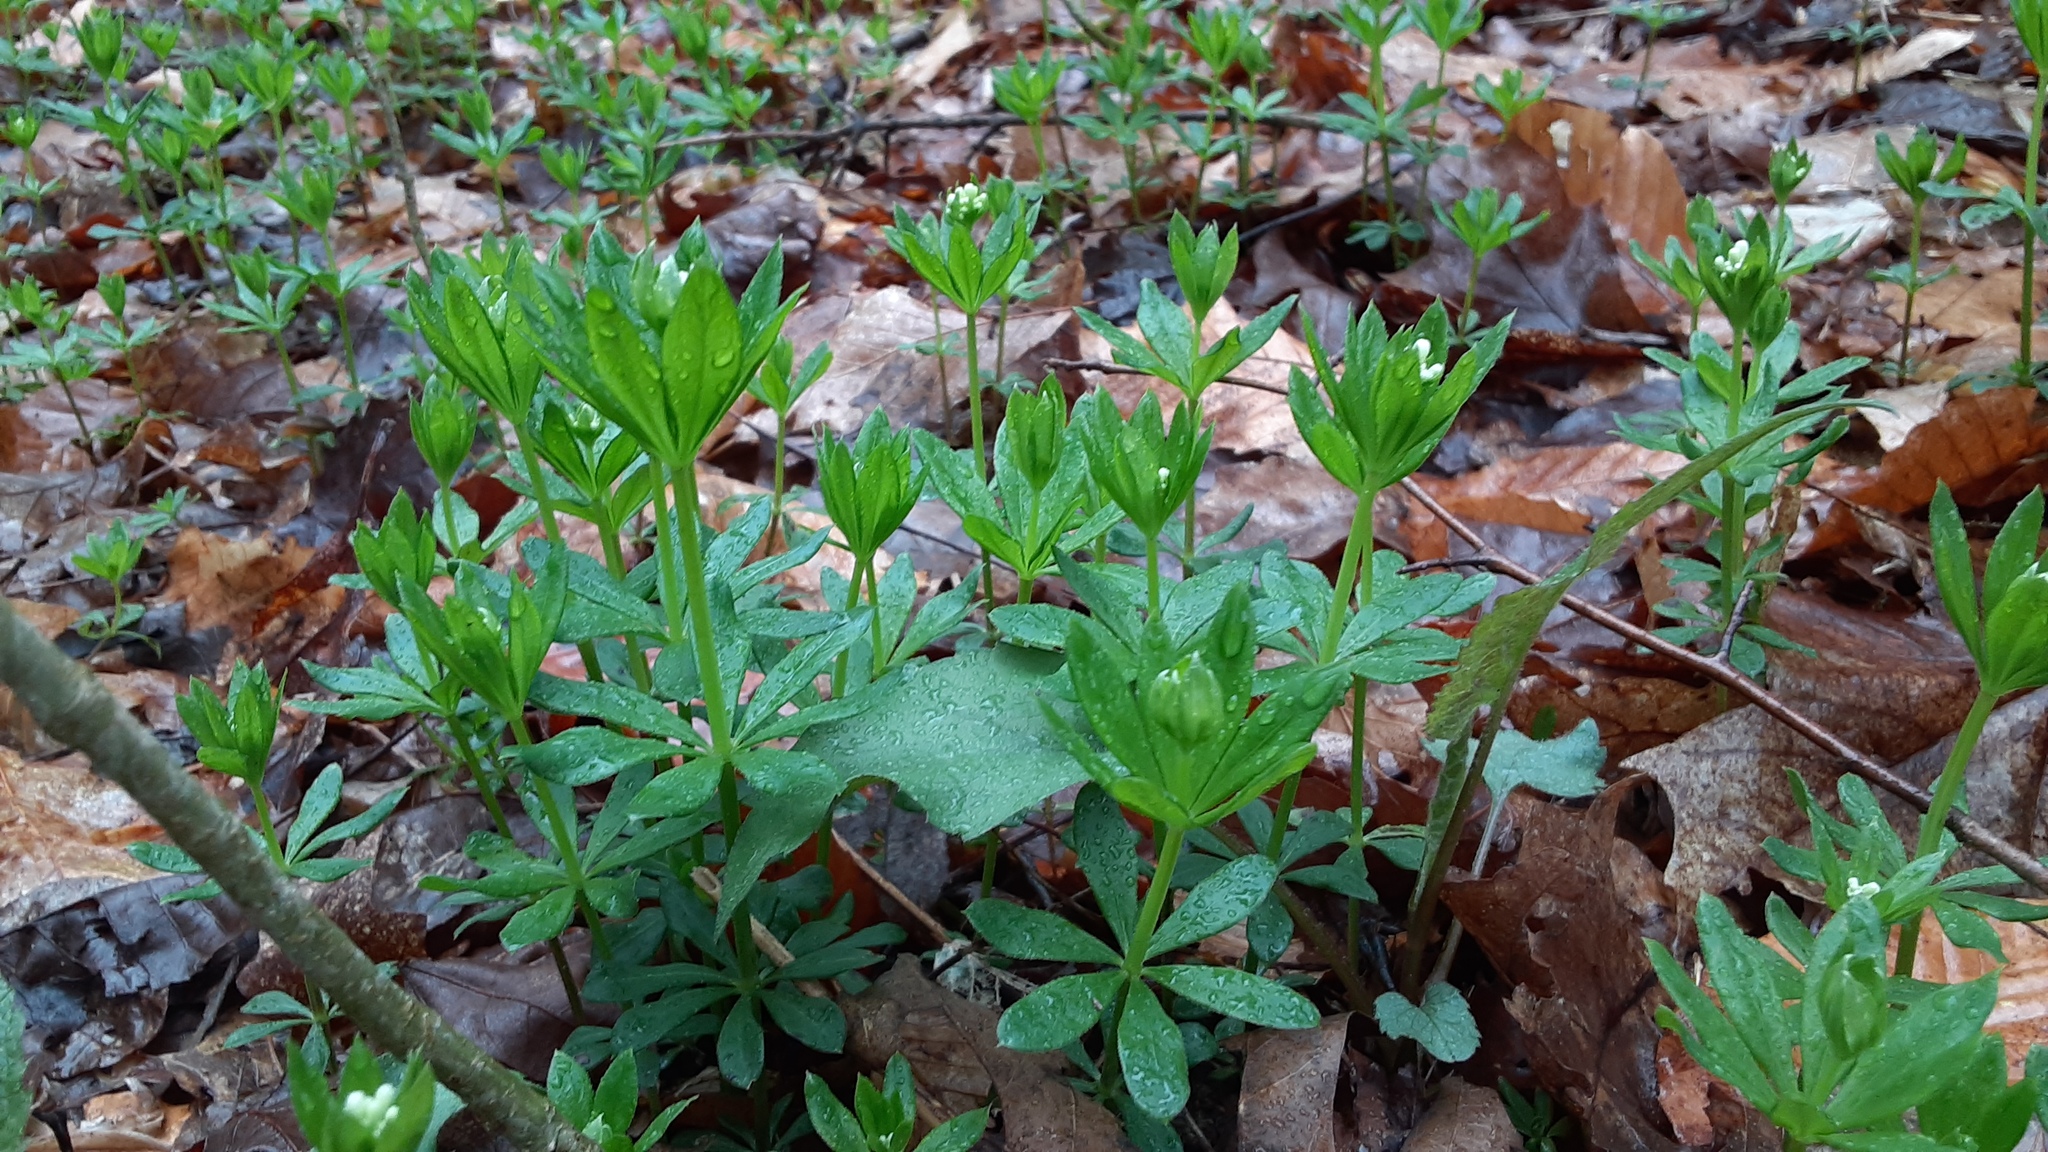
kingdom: Plantae
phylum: Tracheophyta
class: Magnoliopsida
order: Gentianales
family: Rubiaceae
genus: Galium
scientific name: Galium odoratum
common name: Sweet woodruff
